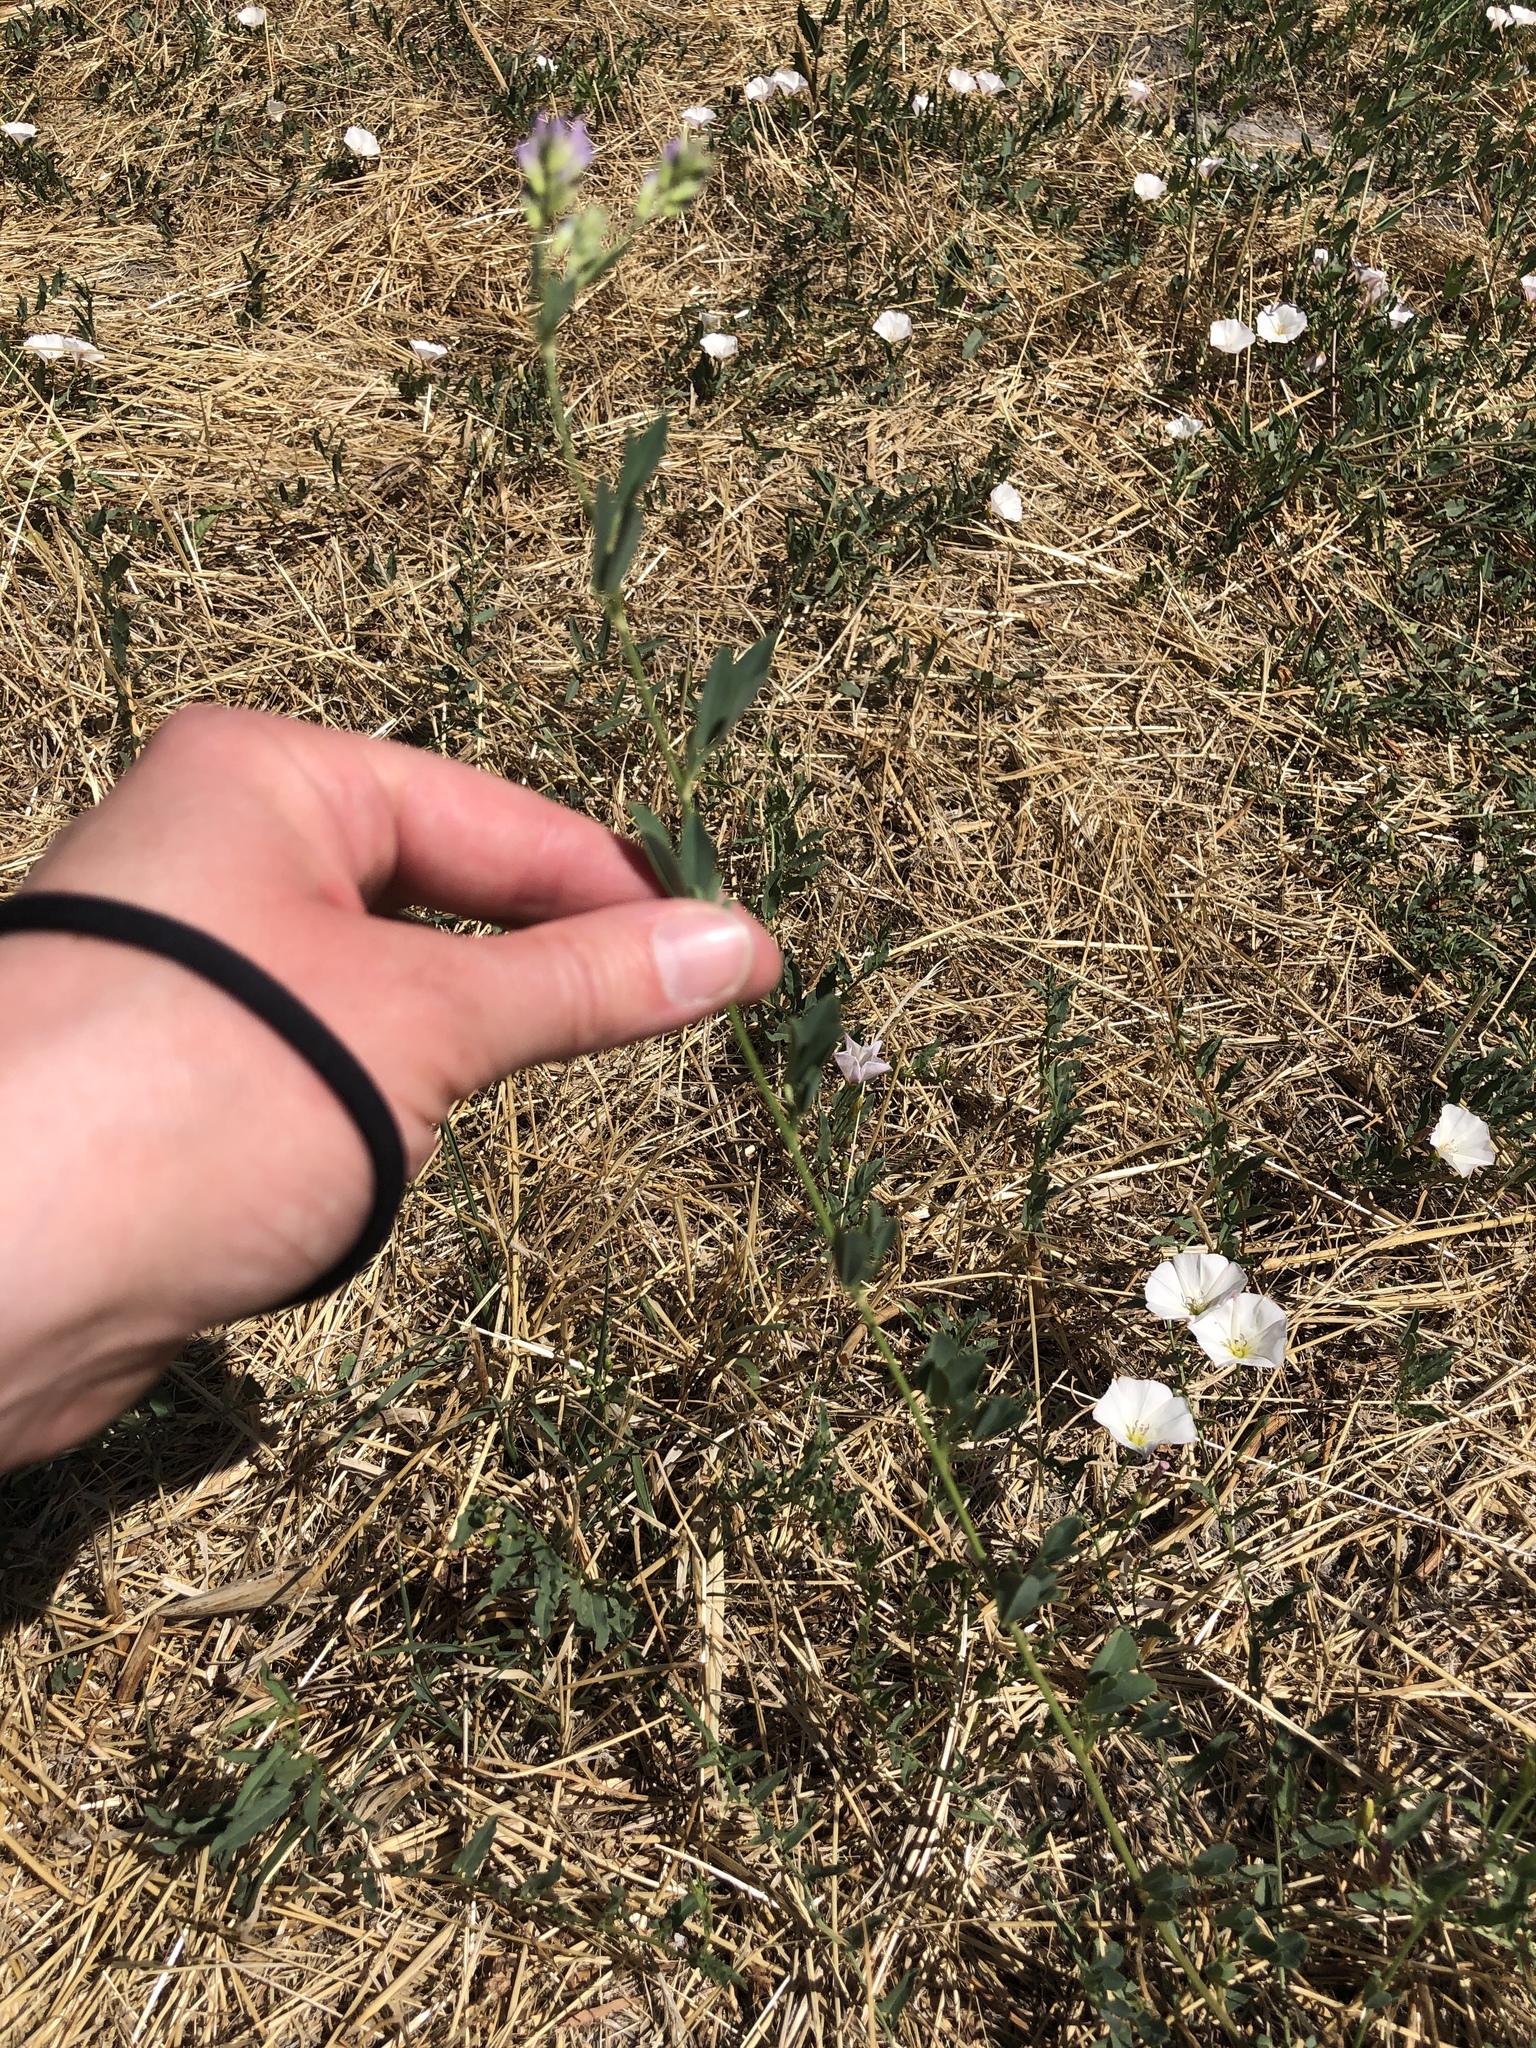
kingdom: Plantae
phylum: Tracheophyta
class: Magnoliopsida
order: Fabales
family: Fabaceae
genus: Medicago
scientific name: Medicago sativa
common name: Alfalfa
